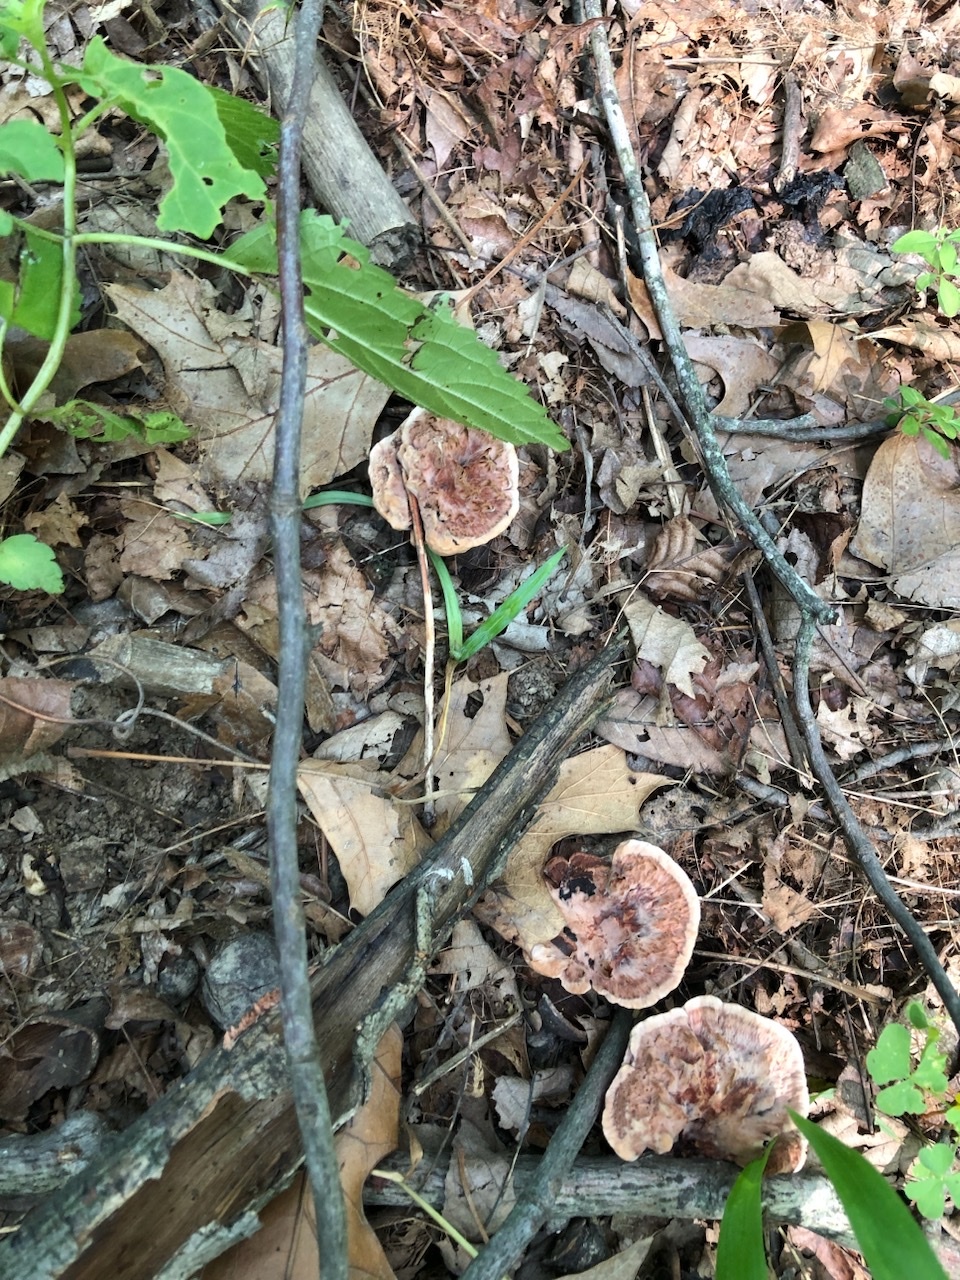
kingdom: Fungi
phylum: Basidiomycota
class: Agaricomycetes
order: Polyporales
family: Polyporaceae
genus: Ganoderma
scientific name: Ganoderma resinaceum
